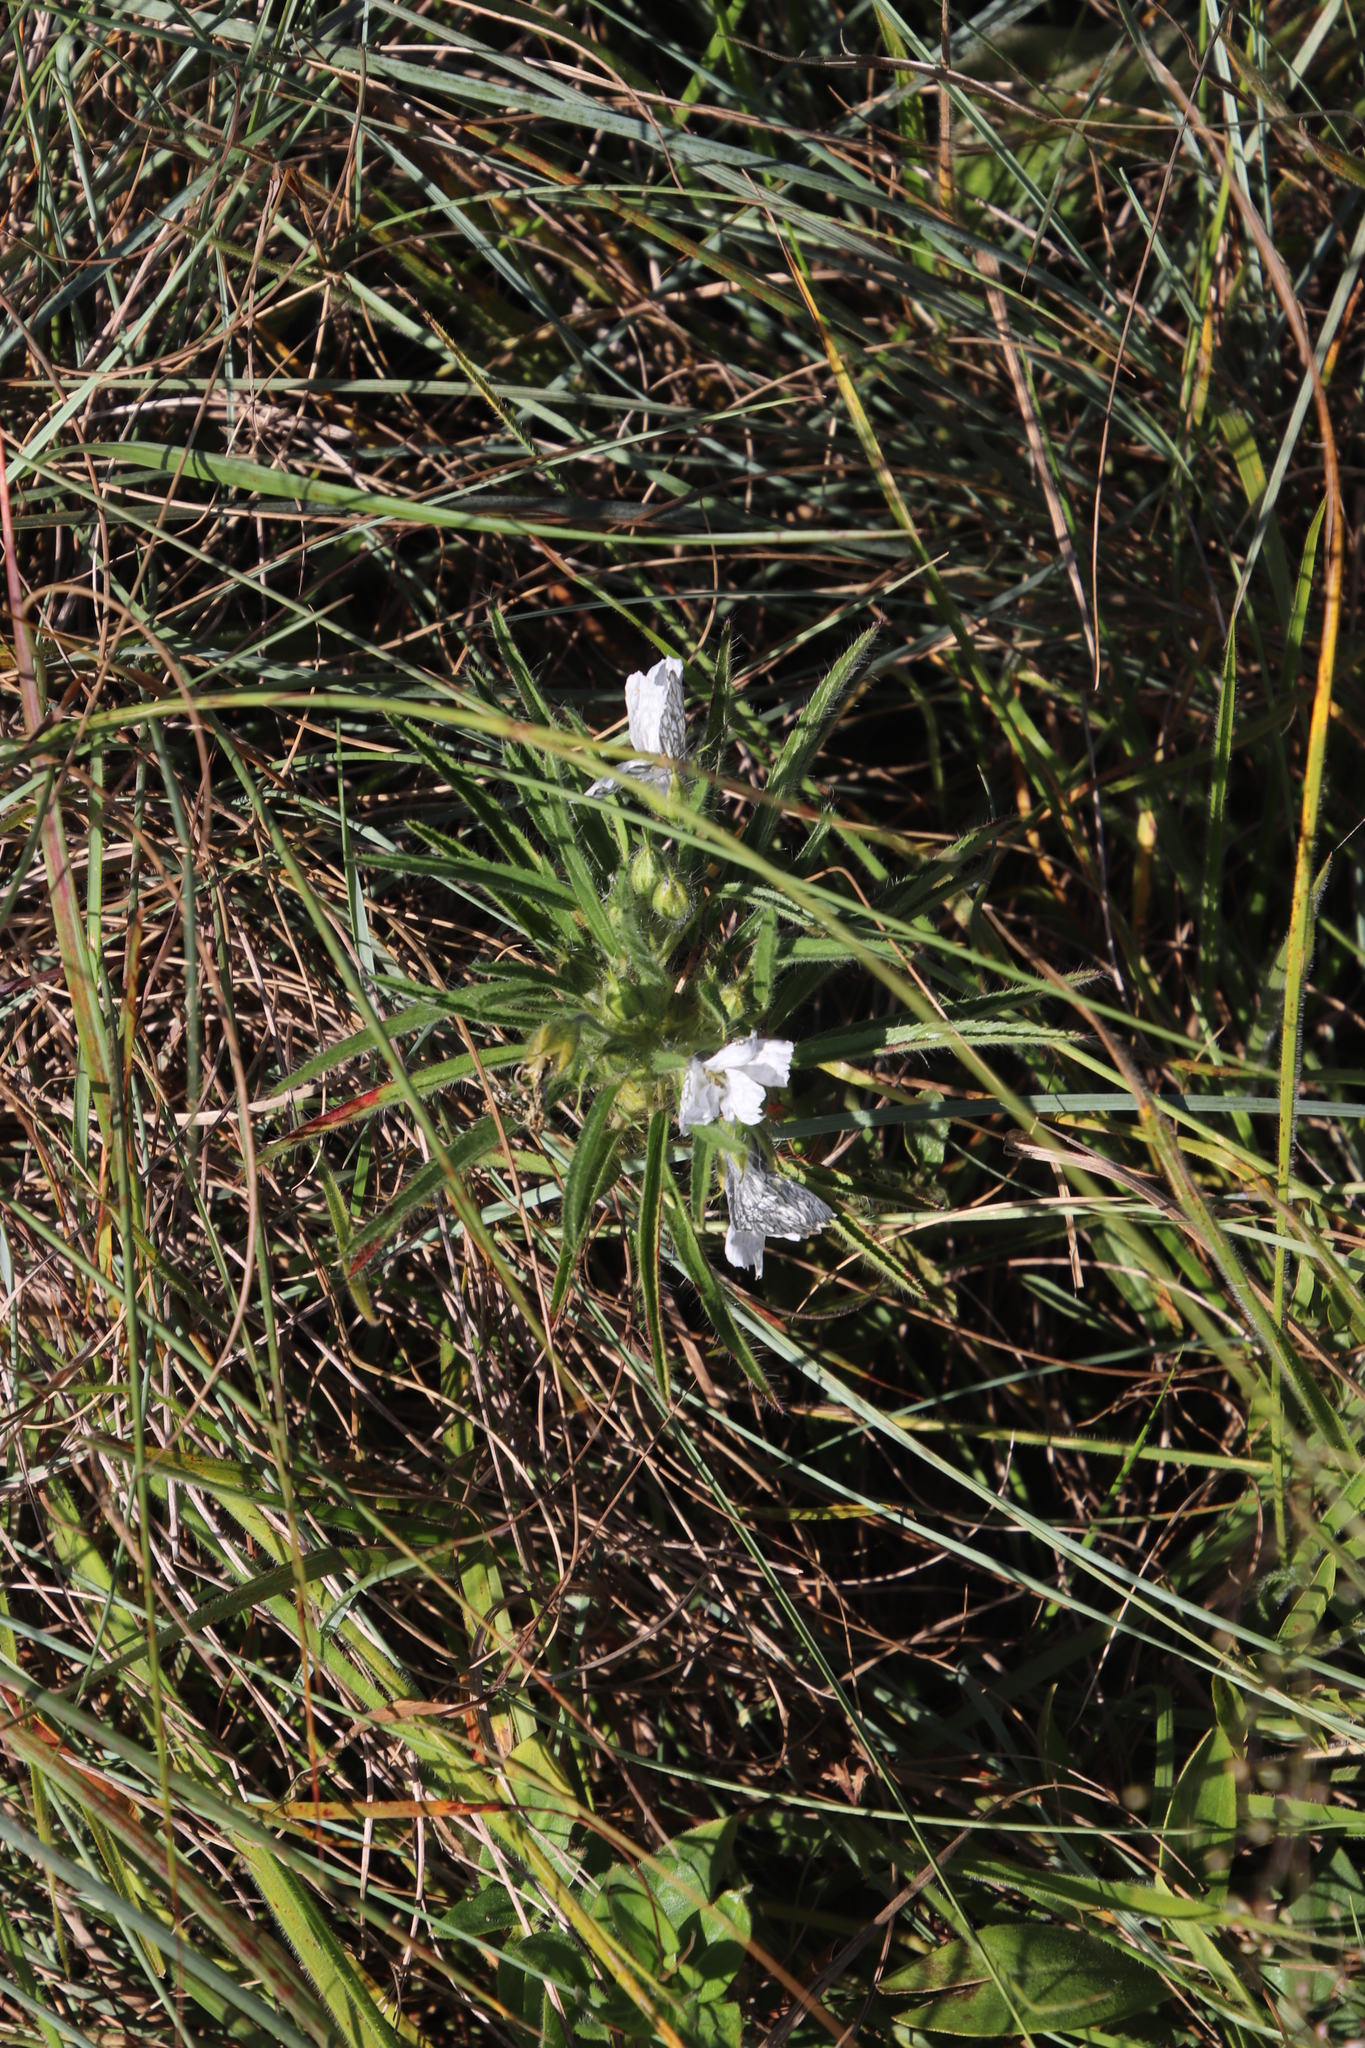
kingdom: Plantae
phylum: Tracheophyta
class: Magnoliopsida
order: Geraniales
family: Geraniaceae
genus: Monsonia
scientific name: Monsonia attenuata
